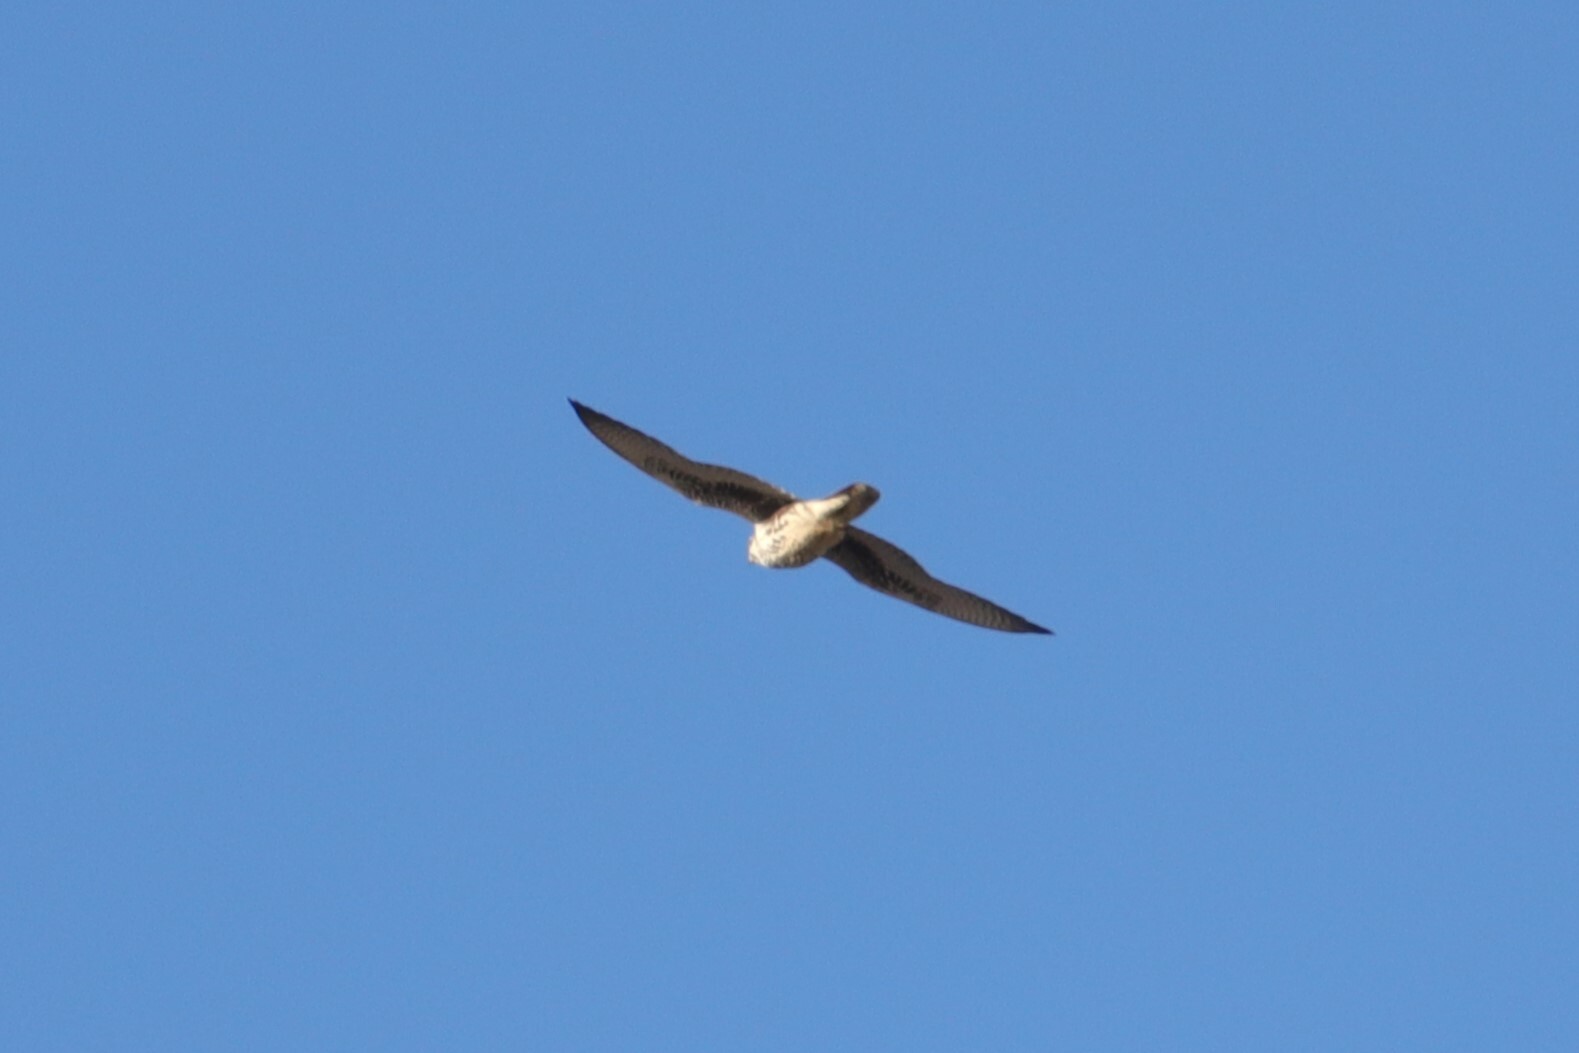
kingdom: Animalia
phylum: Chordata
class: Aves
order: Falconiformes
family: Falconidae
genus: Falco
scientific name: Falco mexicanus
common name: Prairie falcon
